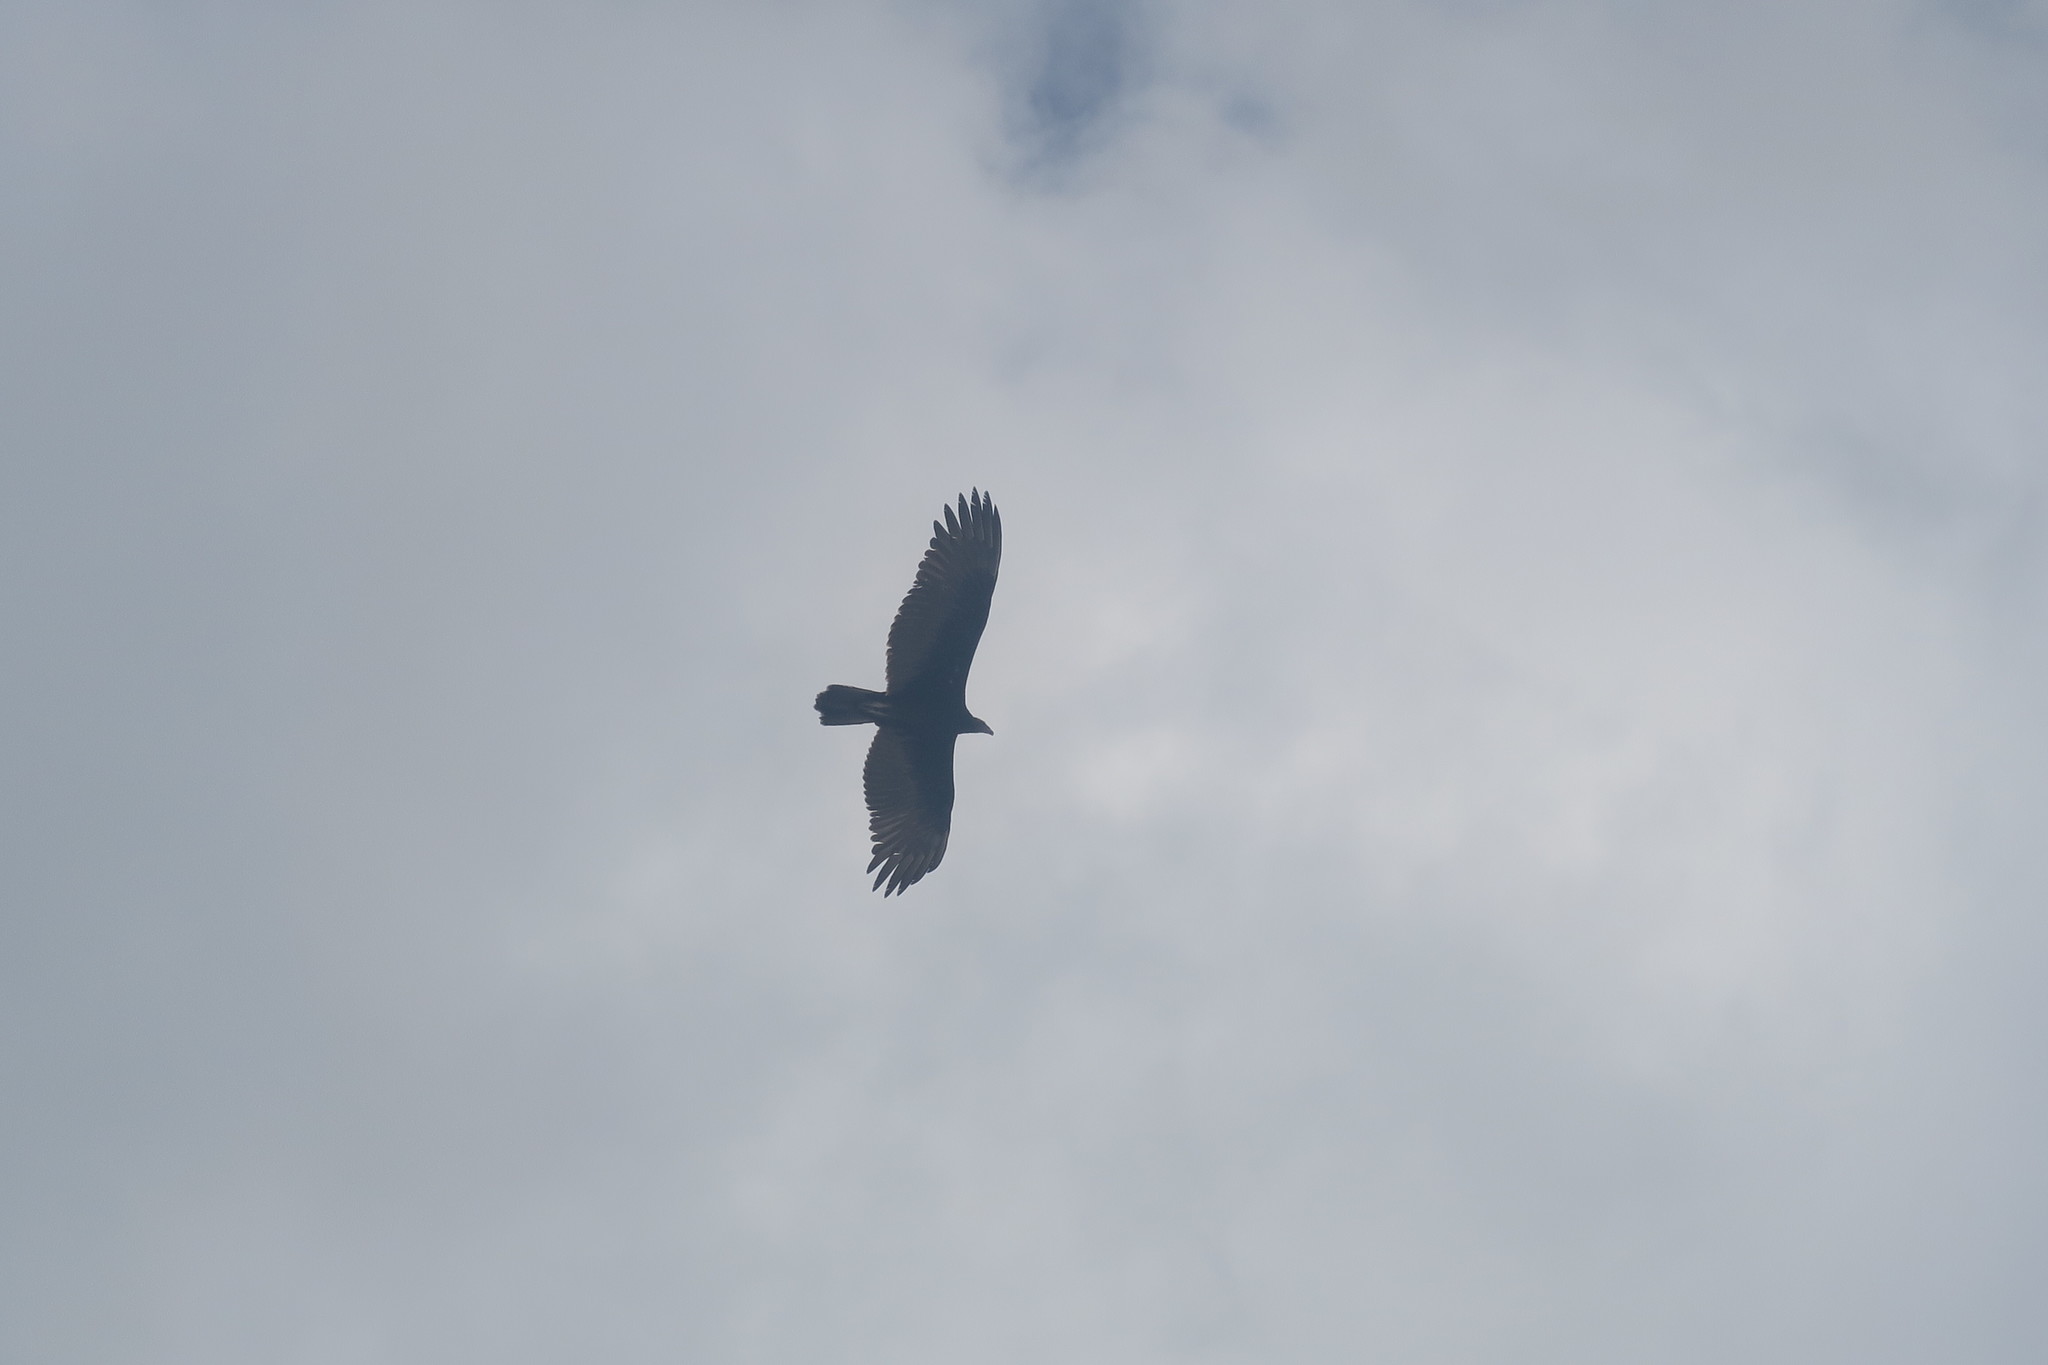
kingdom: Animalia
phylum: Chordata
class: Aves
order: Accipitriformes
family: Cathartidae
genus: Cathartes
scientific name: Cathartes aura
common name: Turkey vulture
